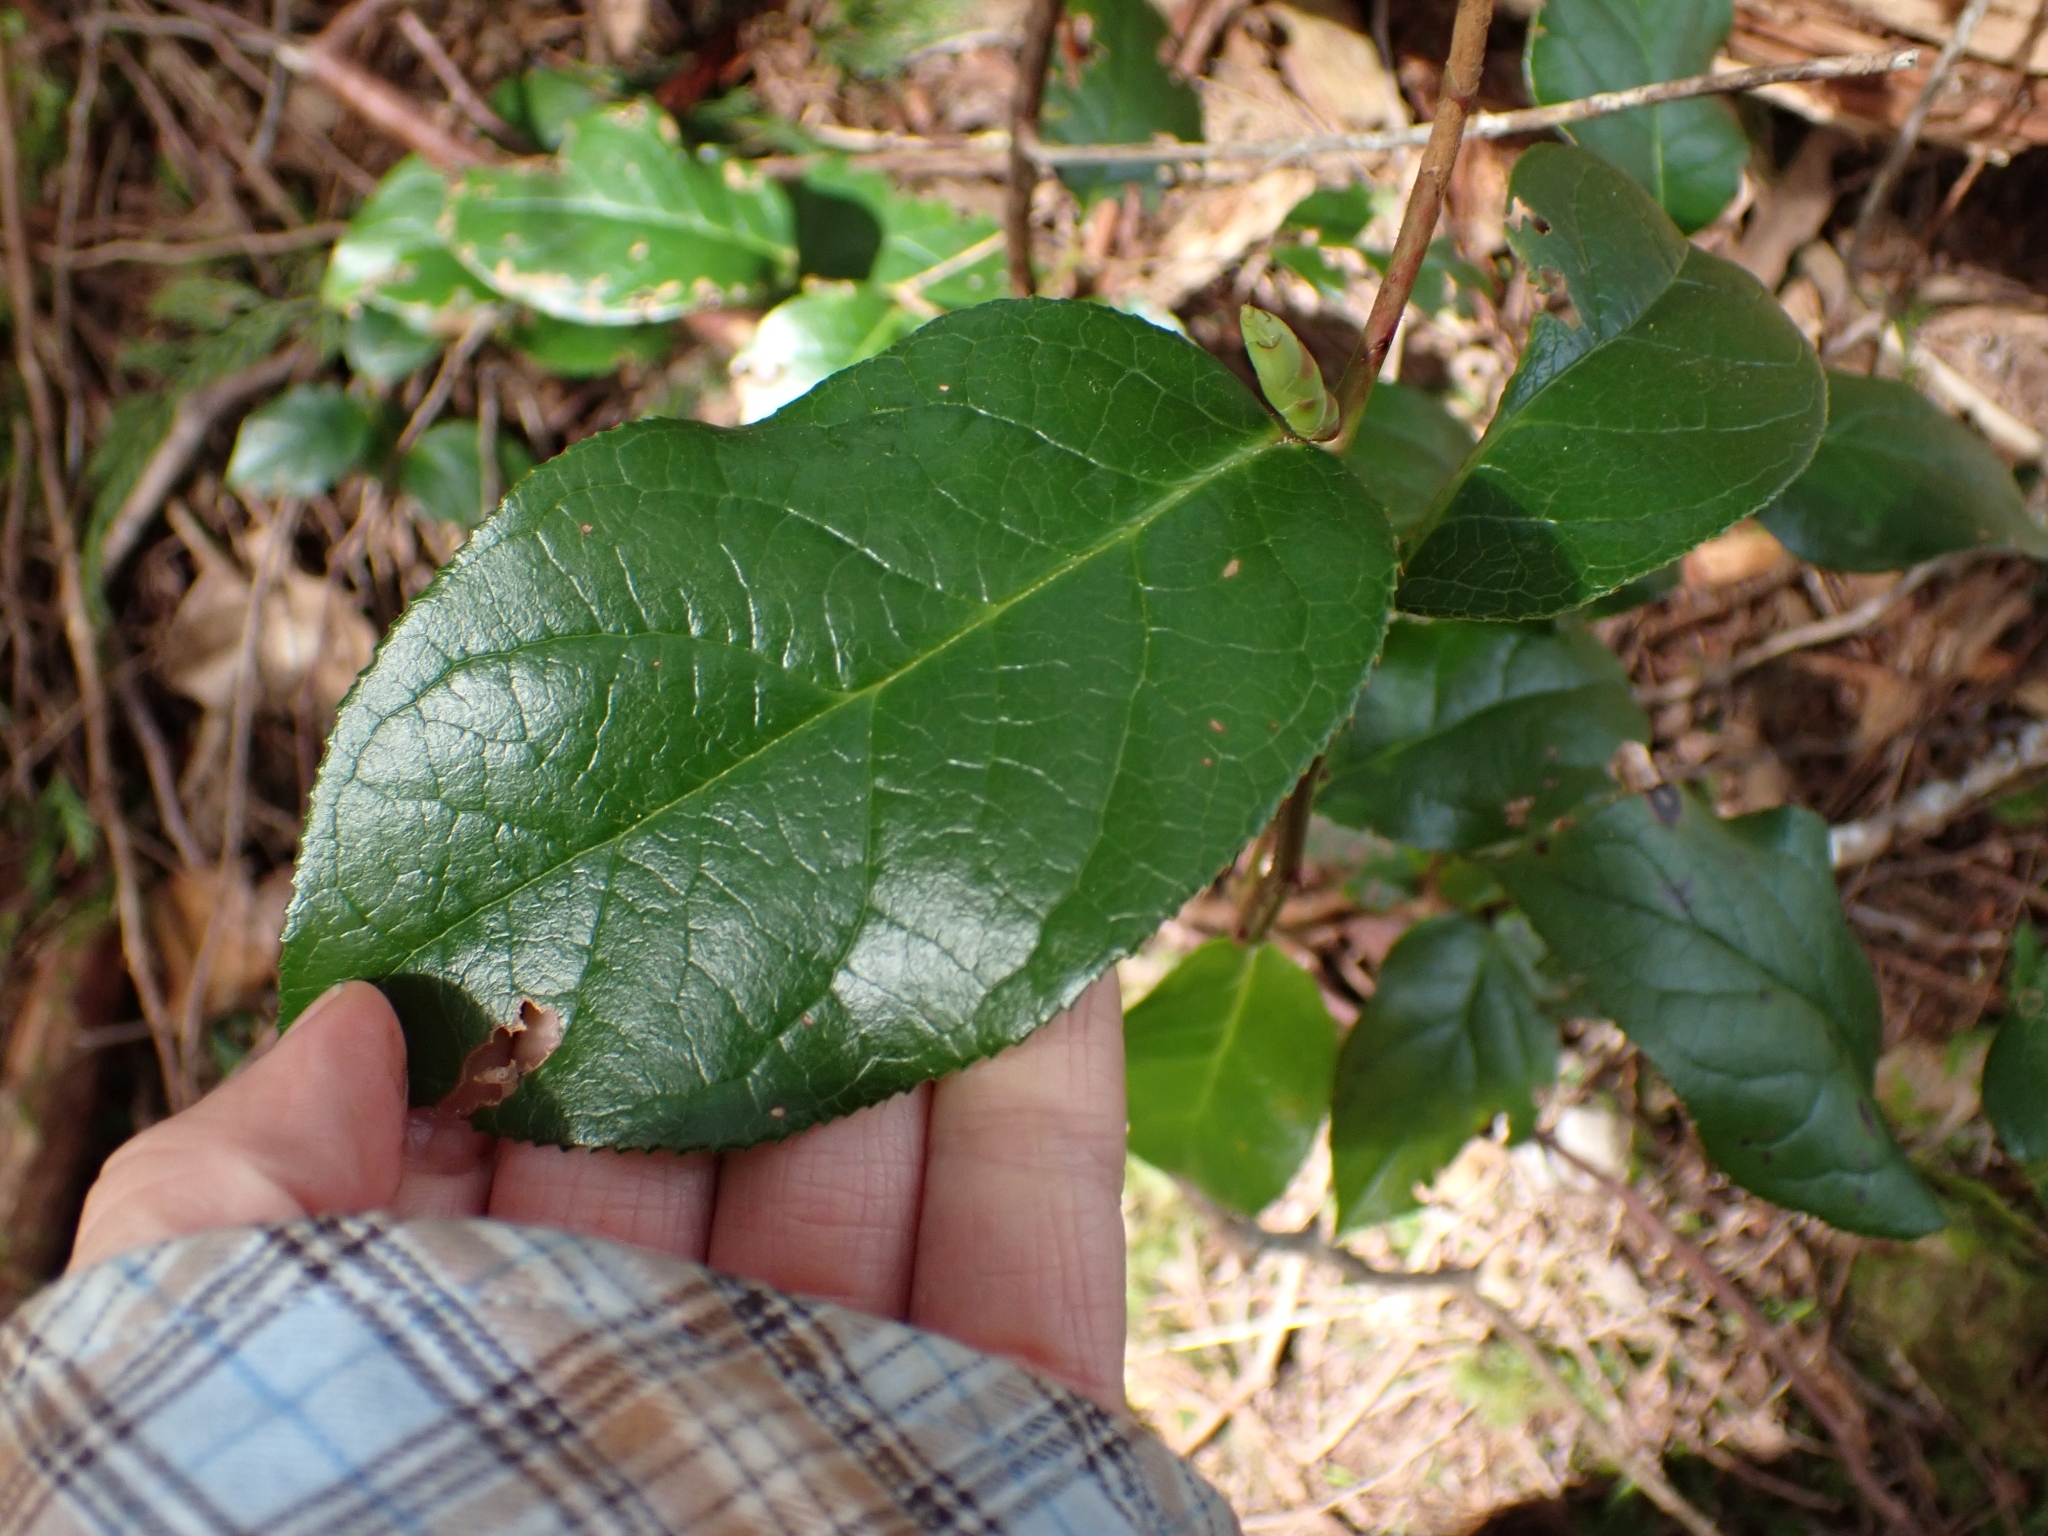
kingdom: Plantae
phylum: Tracheophyta
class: Magnoliopsida
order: Ericales
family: Ericaceae
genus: Gaultheria
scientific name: Gaultheria shallon
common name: Shallon
